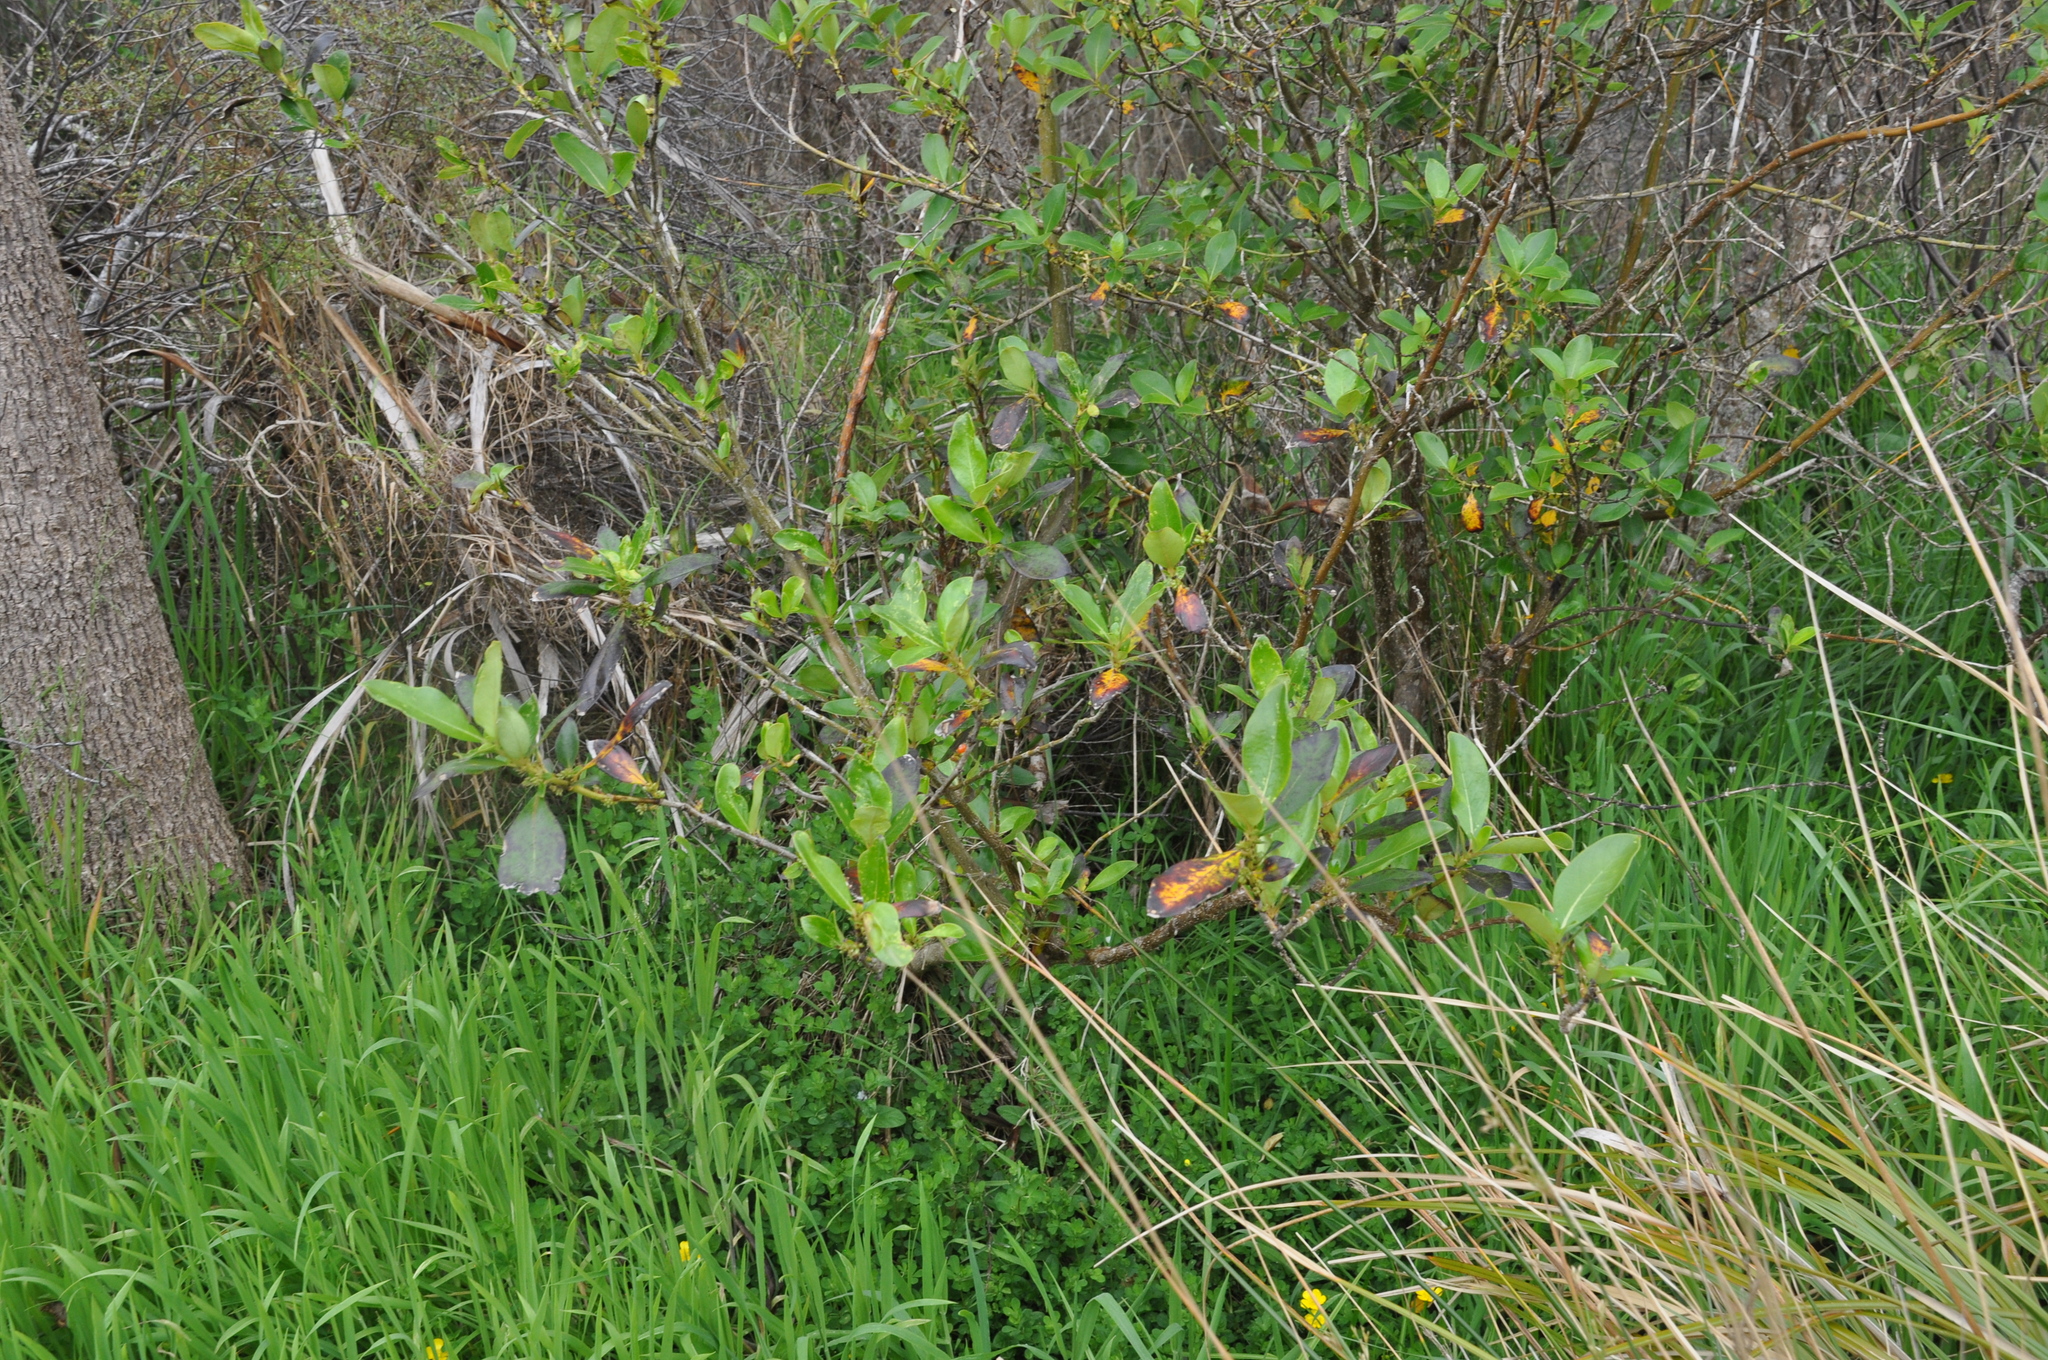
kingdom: Plantae
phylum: Tracheophyta
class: Magnoliopsida
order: Gentianales
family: Rubiaceae
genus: Coprosma
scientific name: Coprosma robusta
